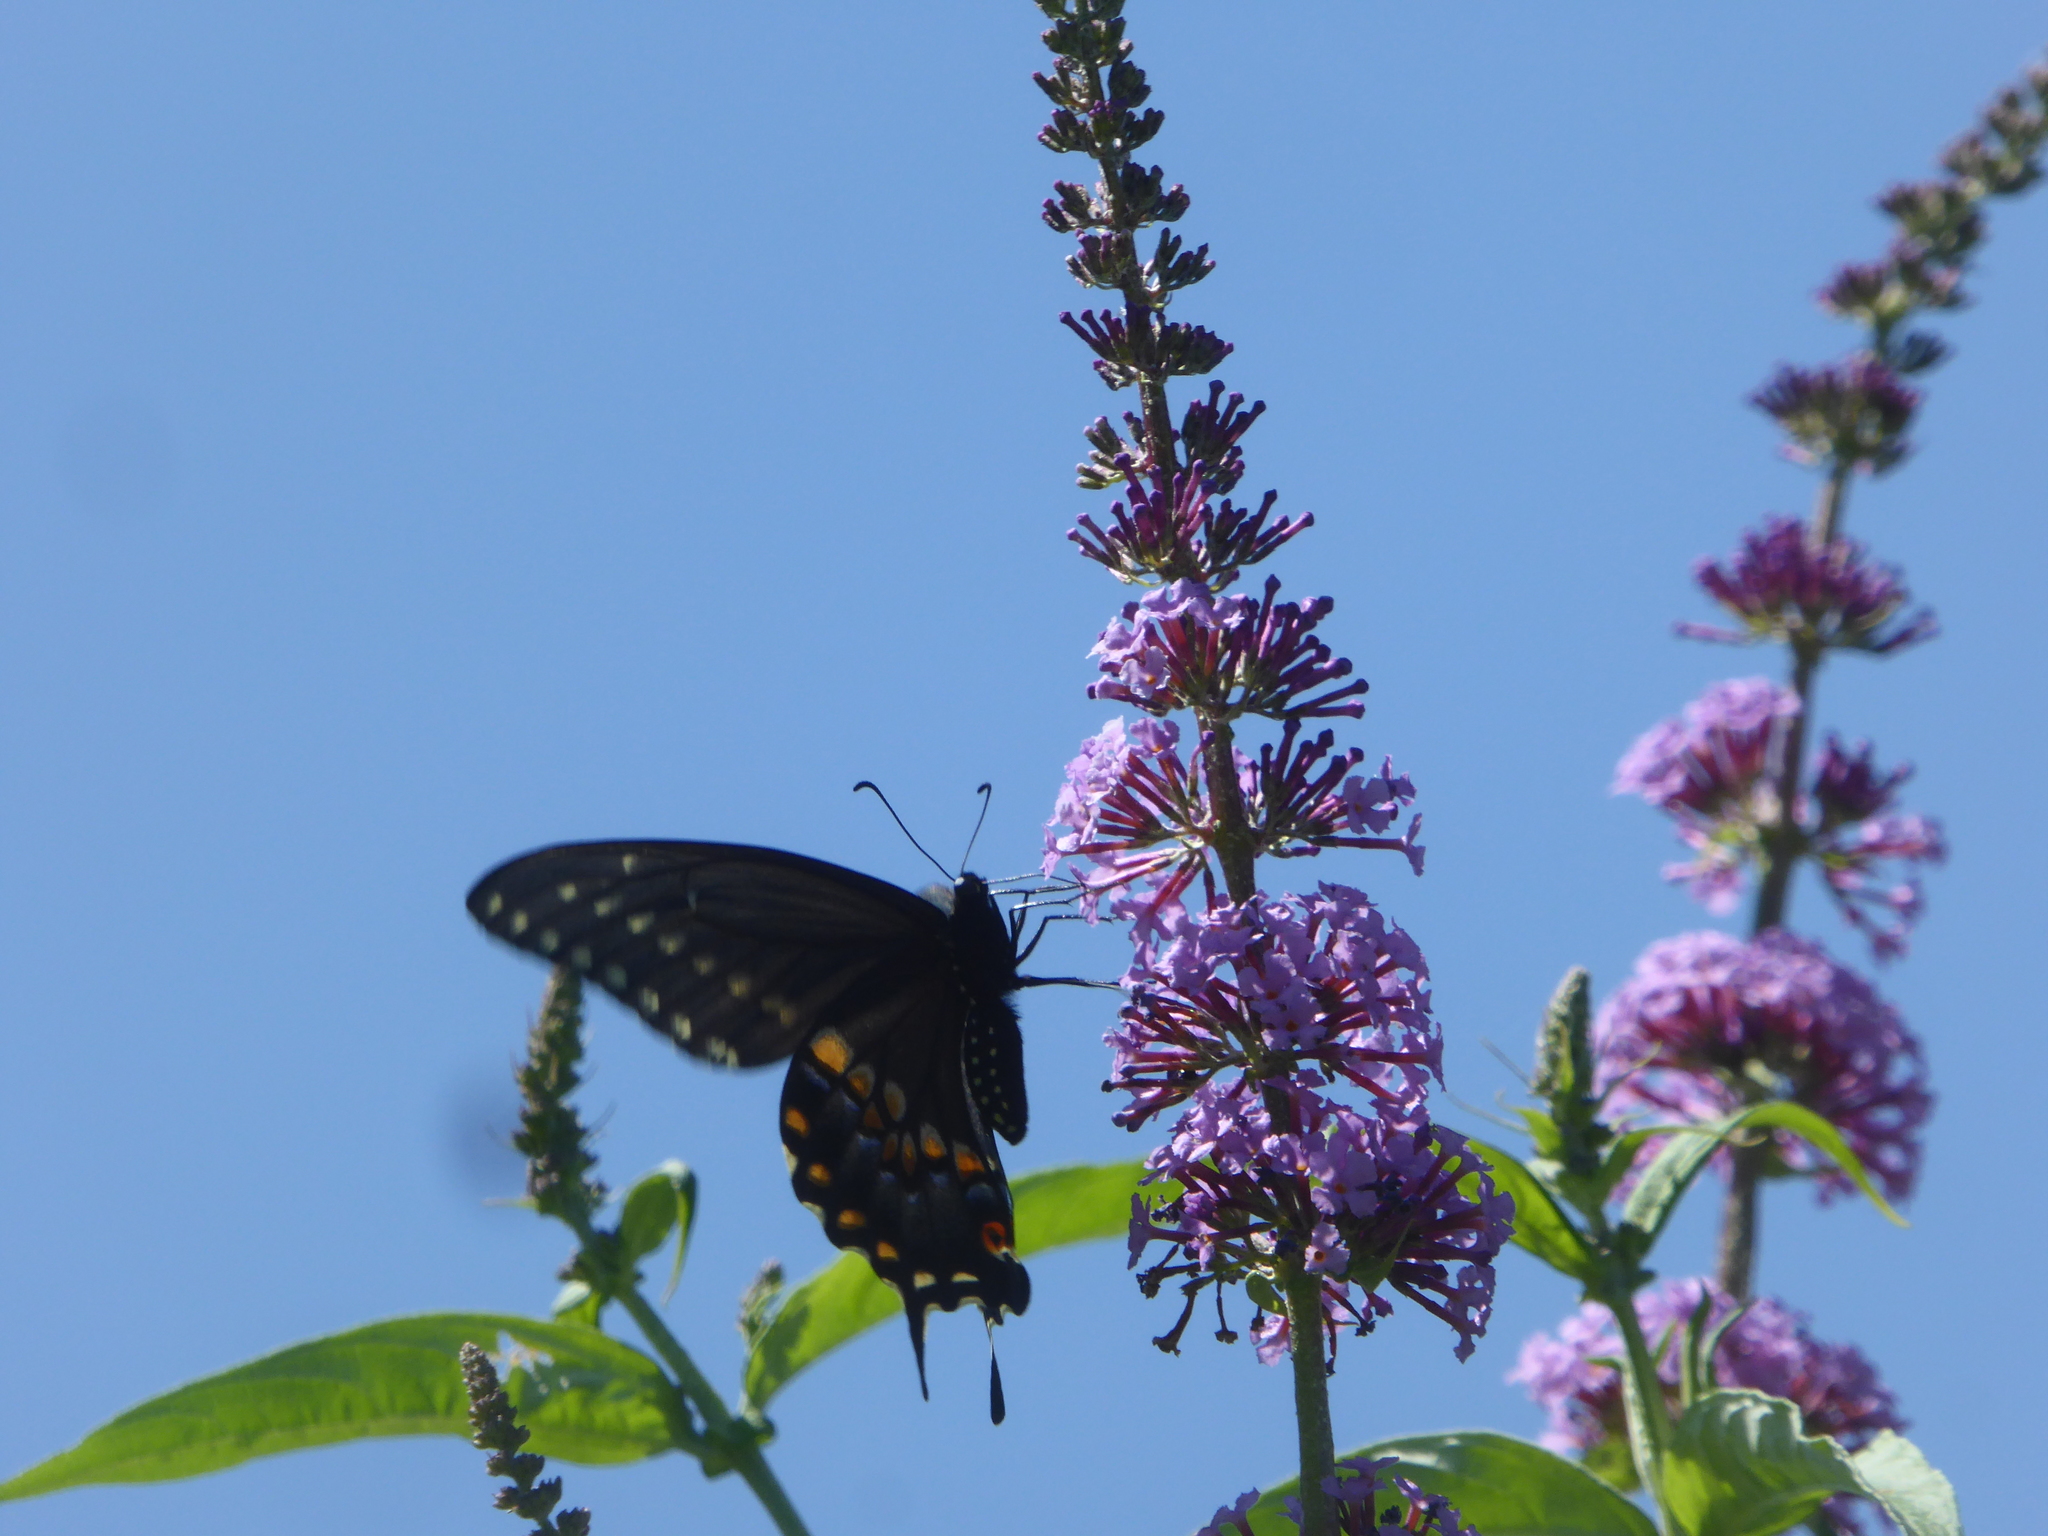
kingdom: Animalia
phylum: Arthropoda
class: Insecta
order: Lepidoptera
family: Papilionidae
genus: Papilio
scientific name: Papilio polyxenes
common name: Black swallowtail
